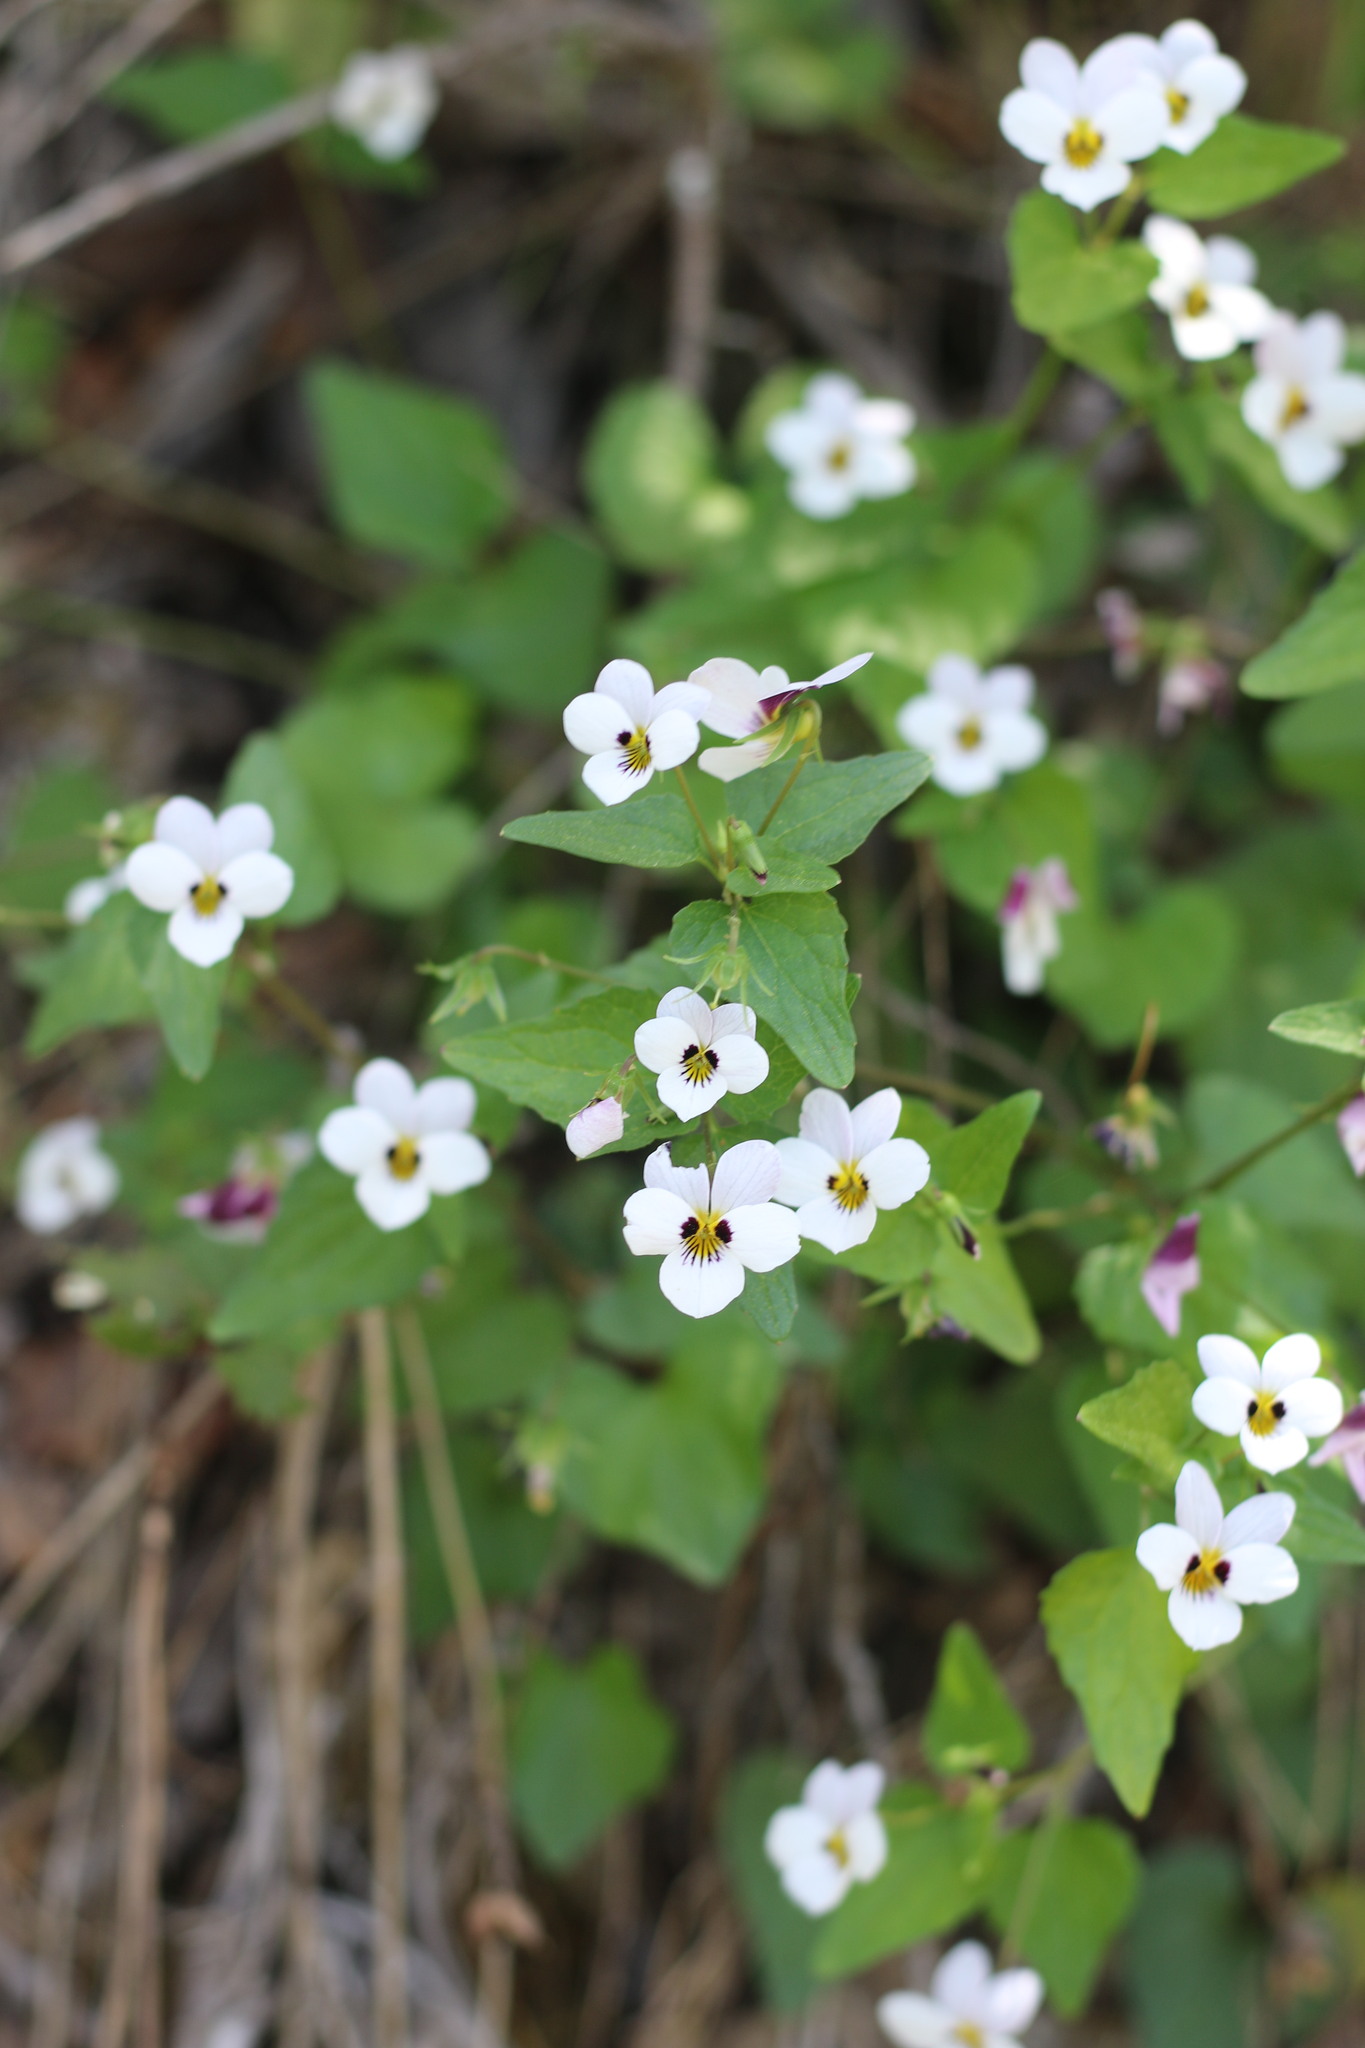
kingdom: Plantae
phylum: Tracheophyta
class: Magnoliopsida
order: Malpighiales
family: Violaceae
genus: Viola
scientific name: Viola ocellata
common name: Western heart's ease
